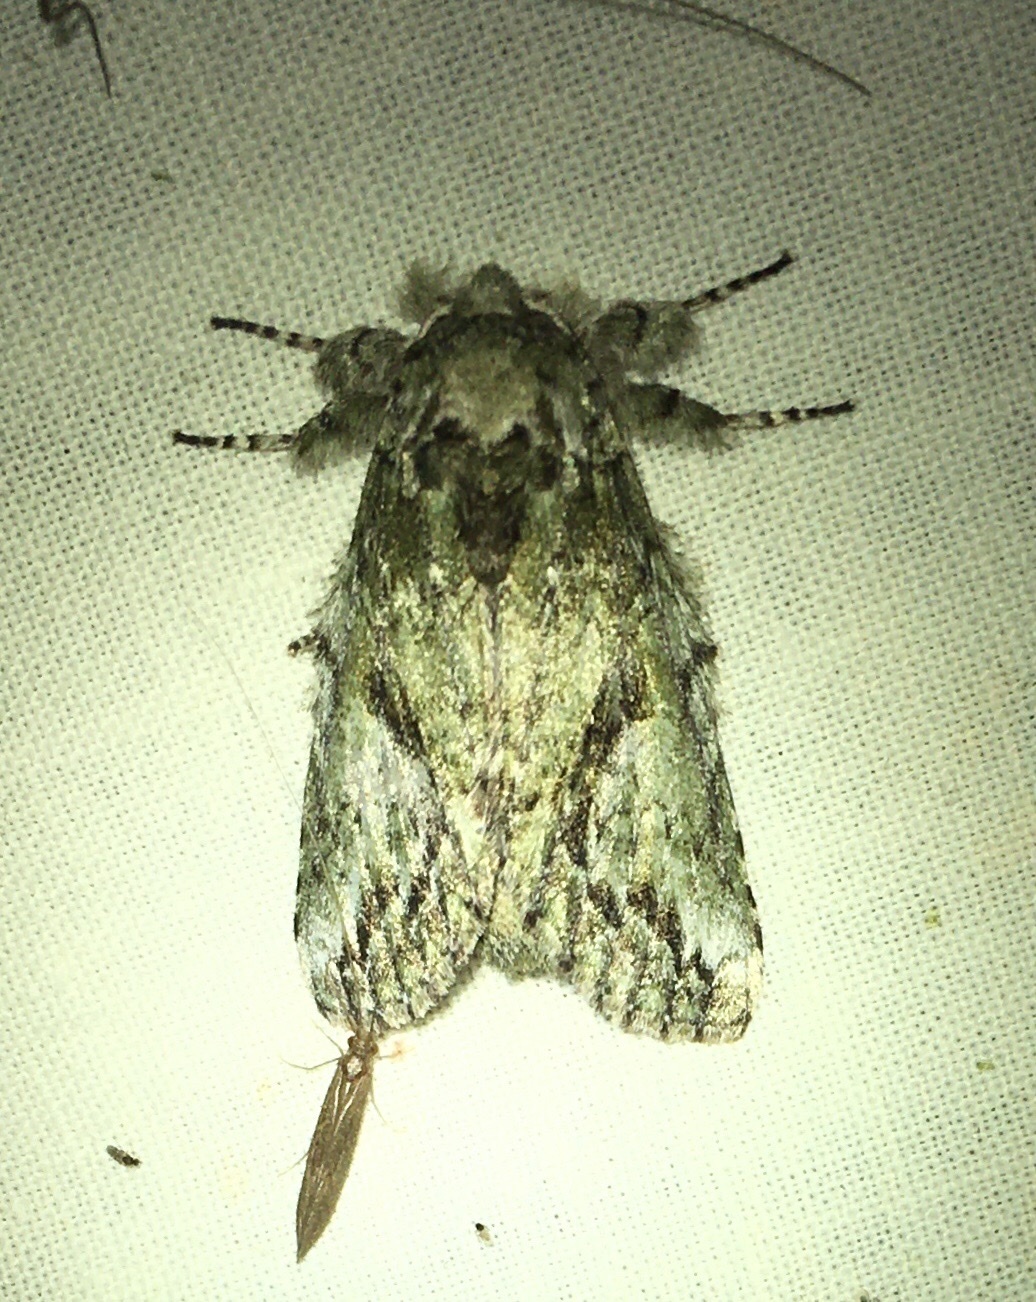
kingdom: Animalia
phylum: Arthropoda
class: Insecta
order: Lepidoptera
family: Notodontidae
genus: Heterocampa
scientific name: Heterocampa
